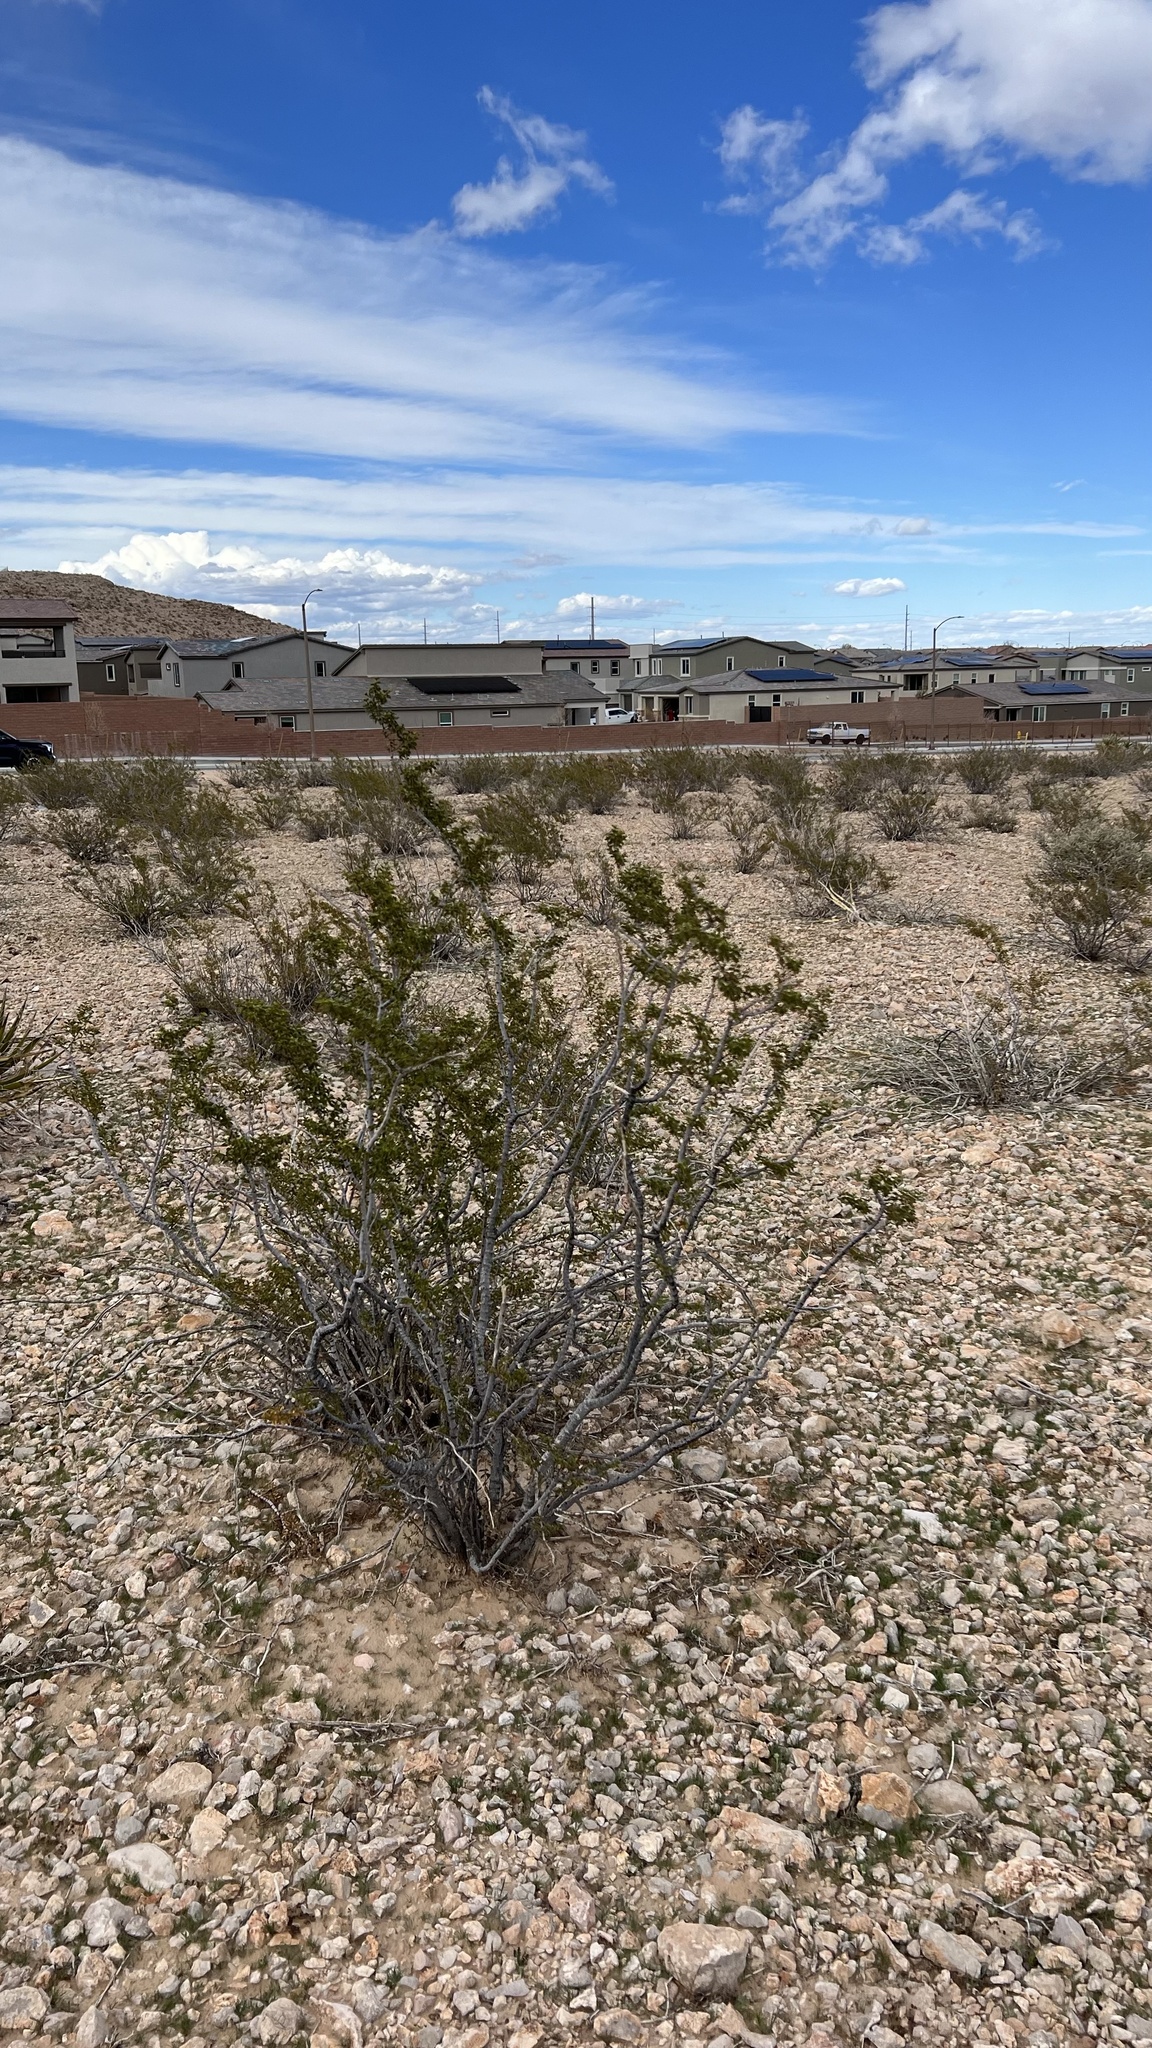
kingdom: Plantae
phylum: Tracheophyta
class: Magnoliopsida
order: Zygophyllales
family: Zygophyllaceae
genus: Larrea
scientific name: Larrea tridentata
